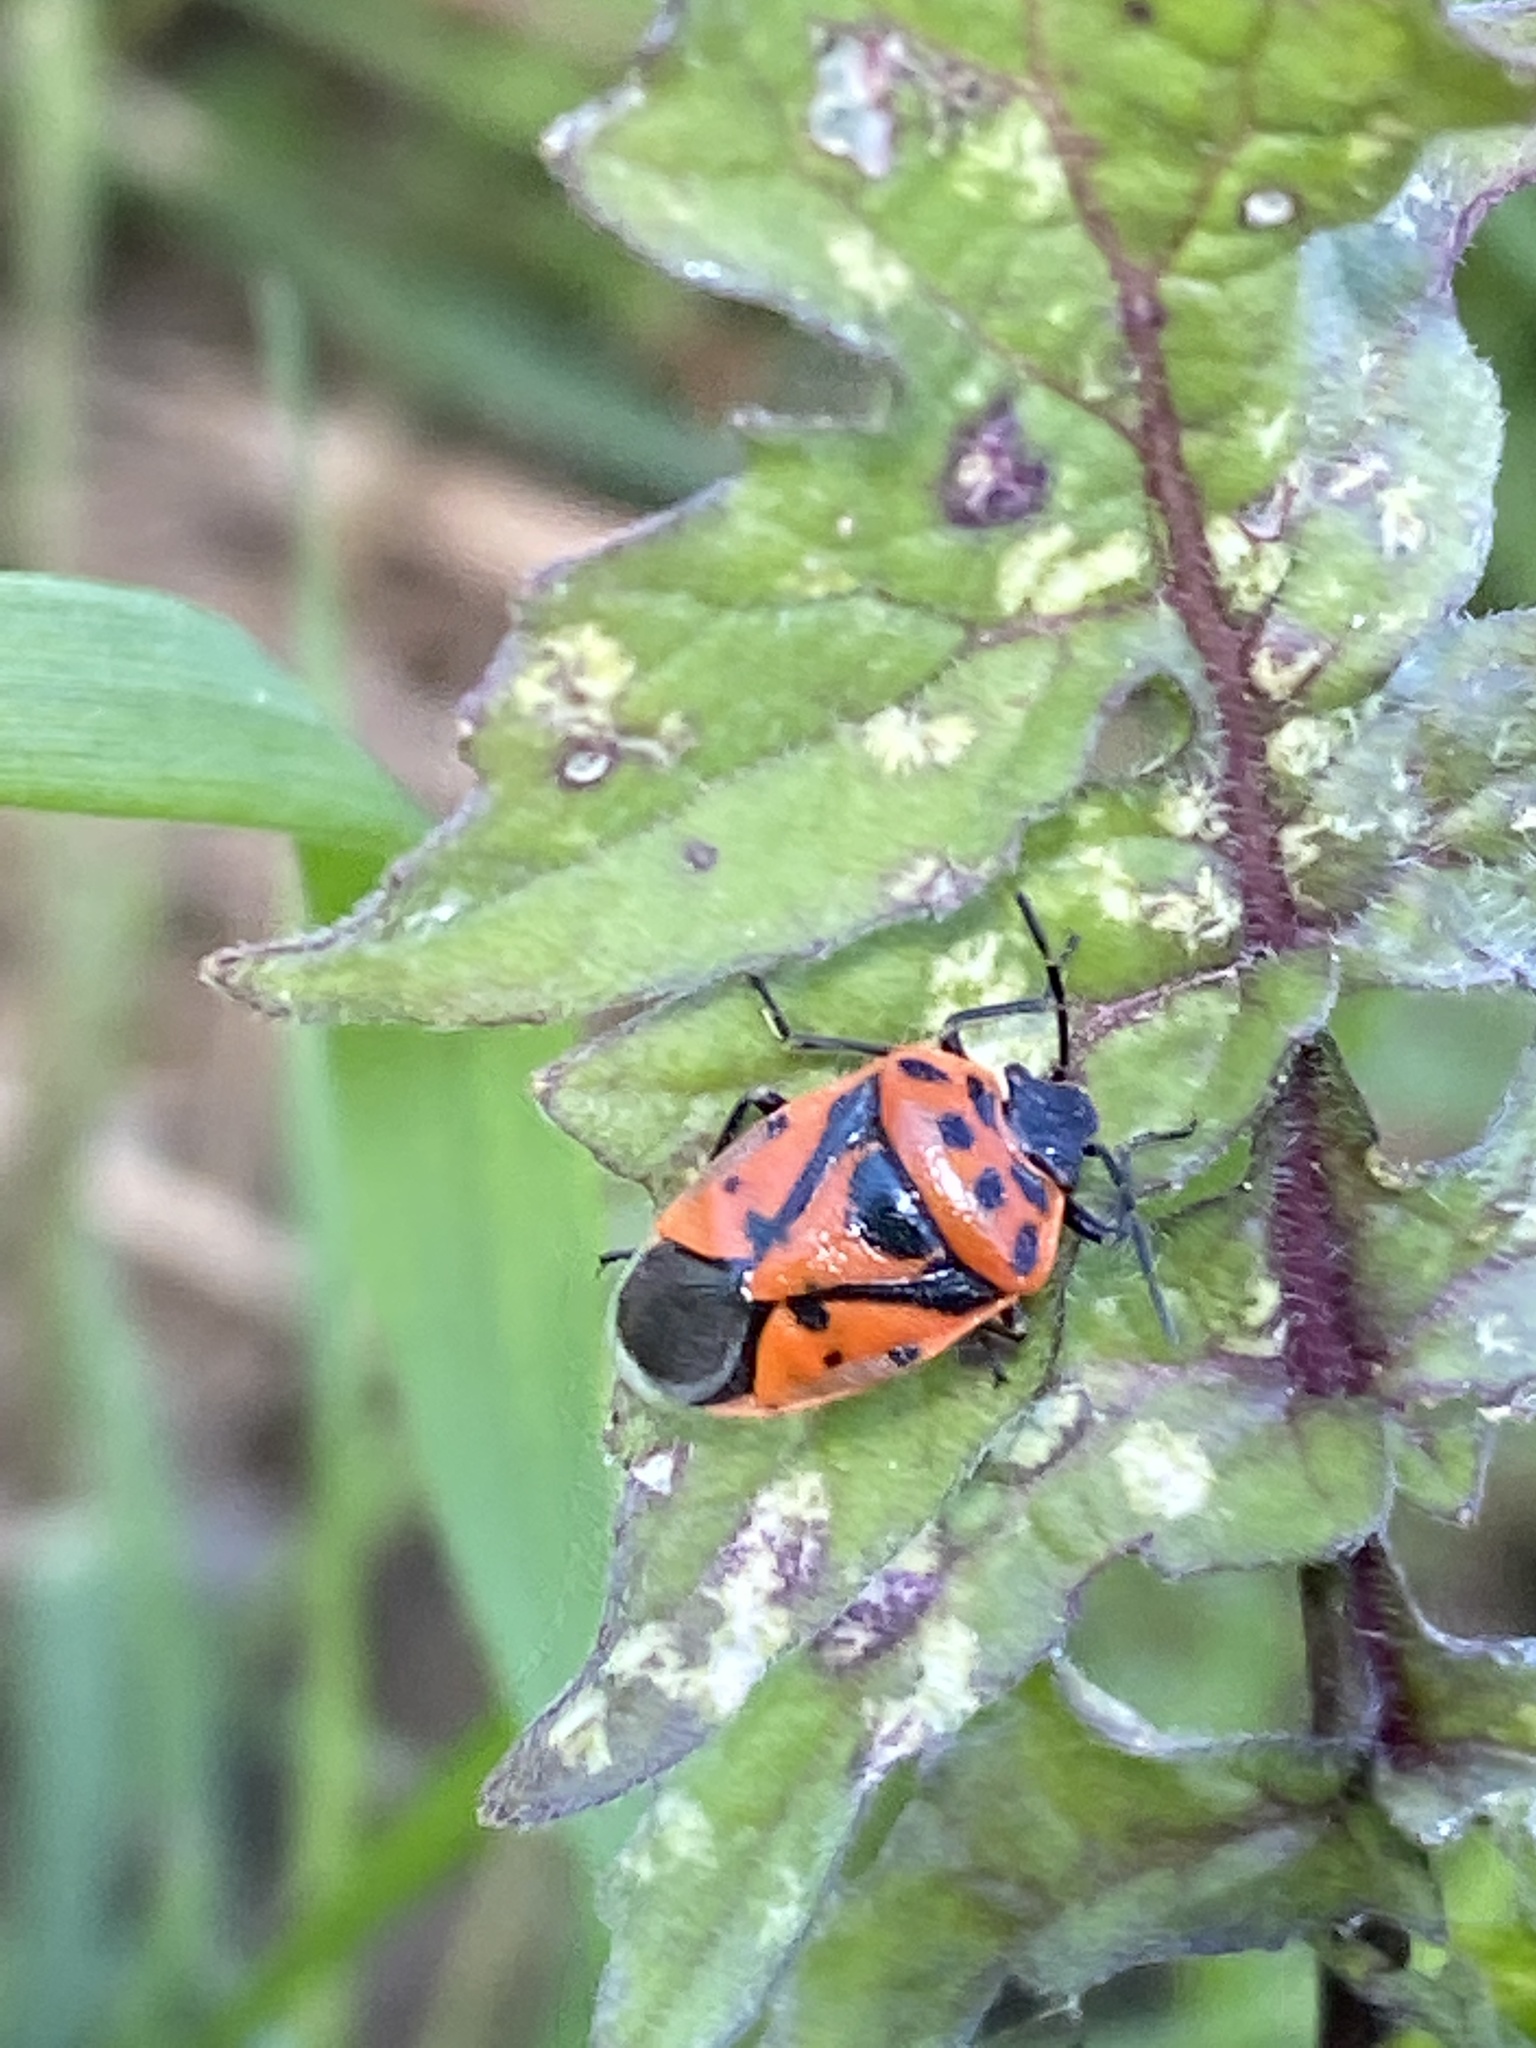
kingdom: Animalia
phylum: Arthropoda
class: Insecta
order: Hemiptera
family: Pentatomidae
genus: Eurydema
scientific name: Eurydema ornata
